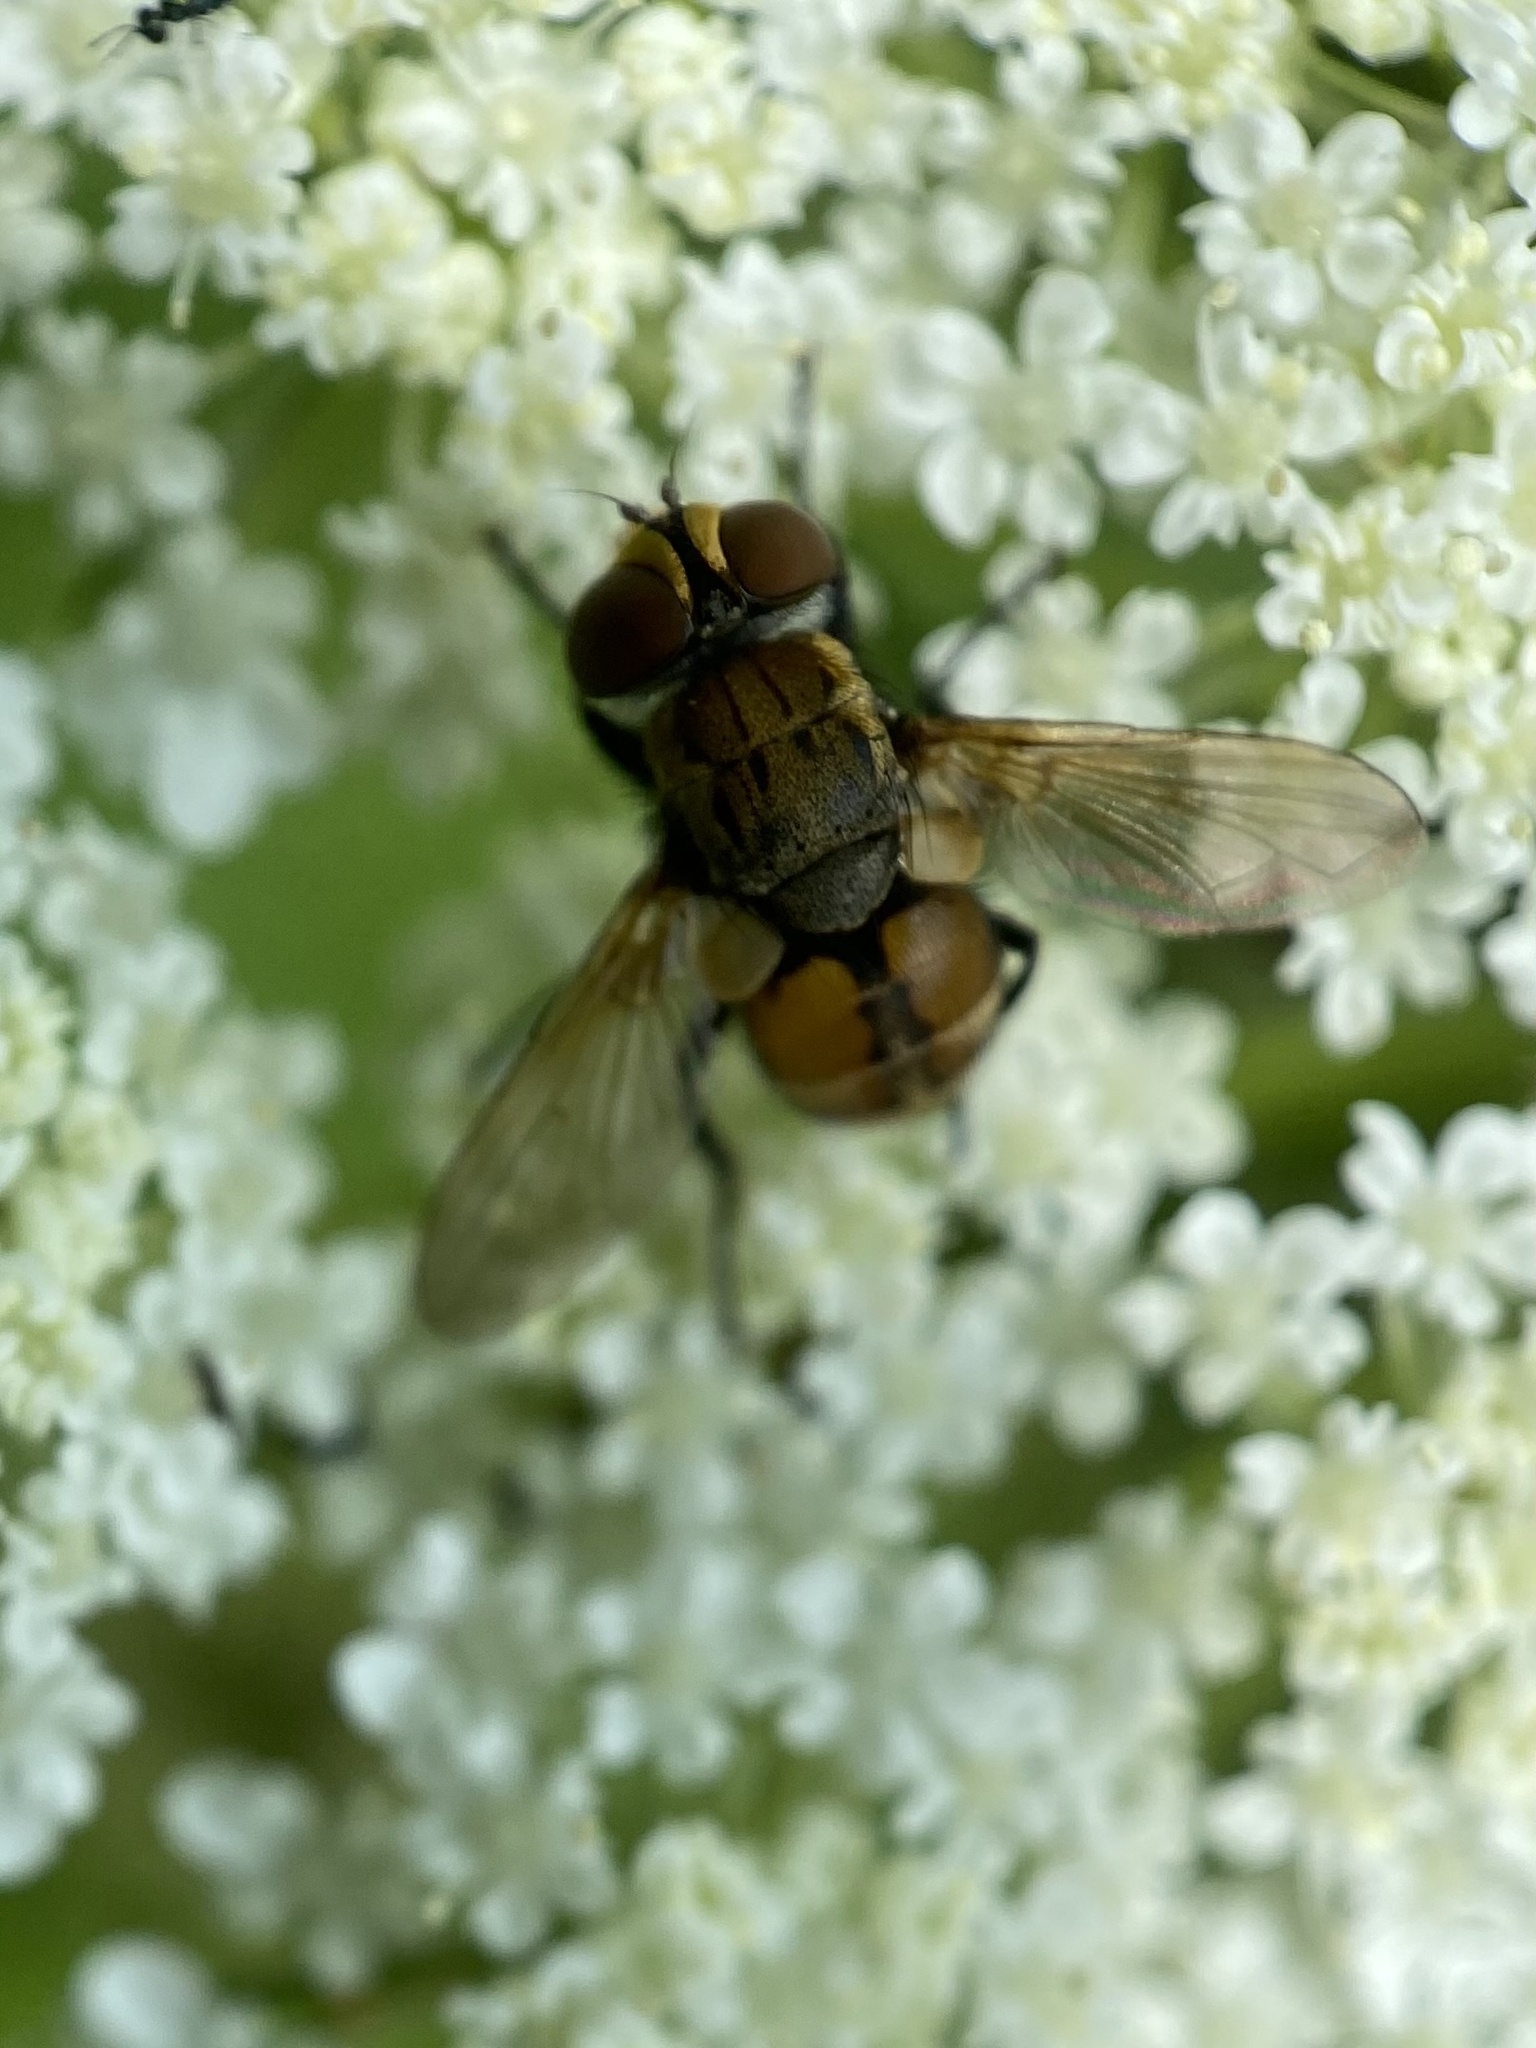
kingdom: Animalia
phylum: Arthropoda
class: Insecta
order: Diptera
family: Tachinidae
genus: Gymnoclytia
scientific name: Gymnoclytia occidua
